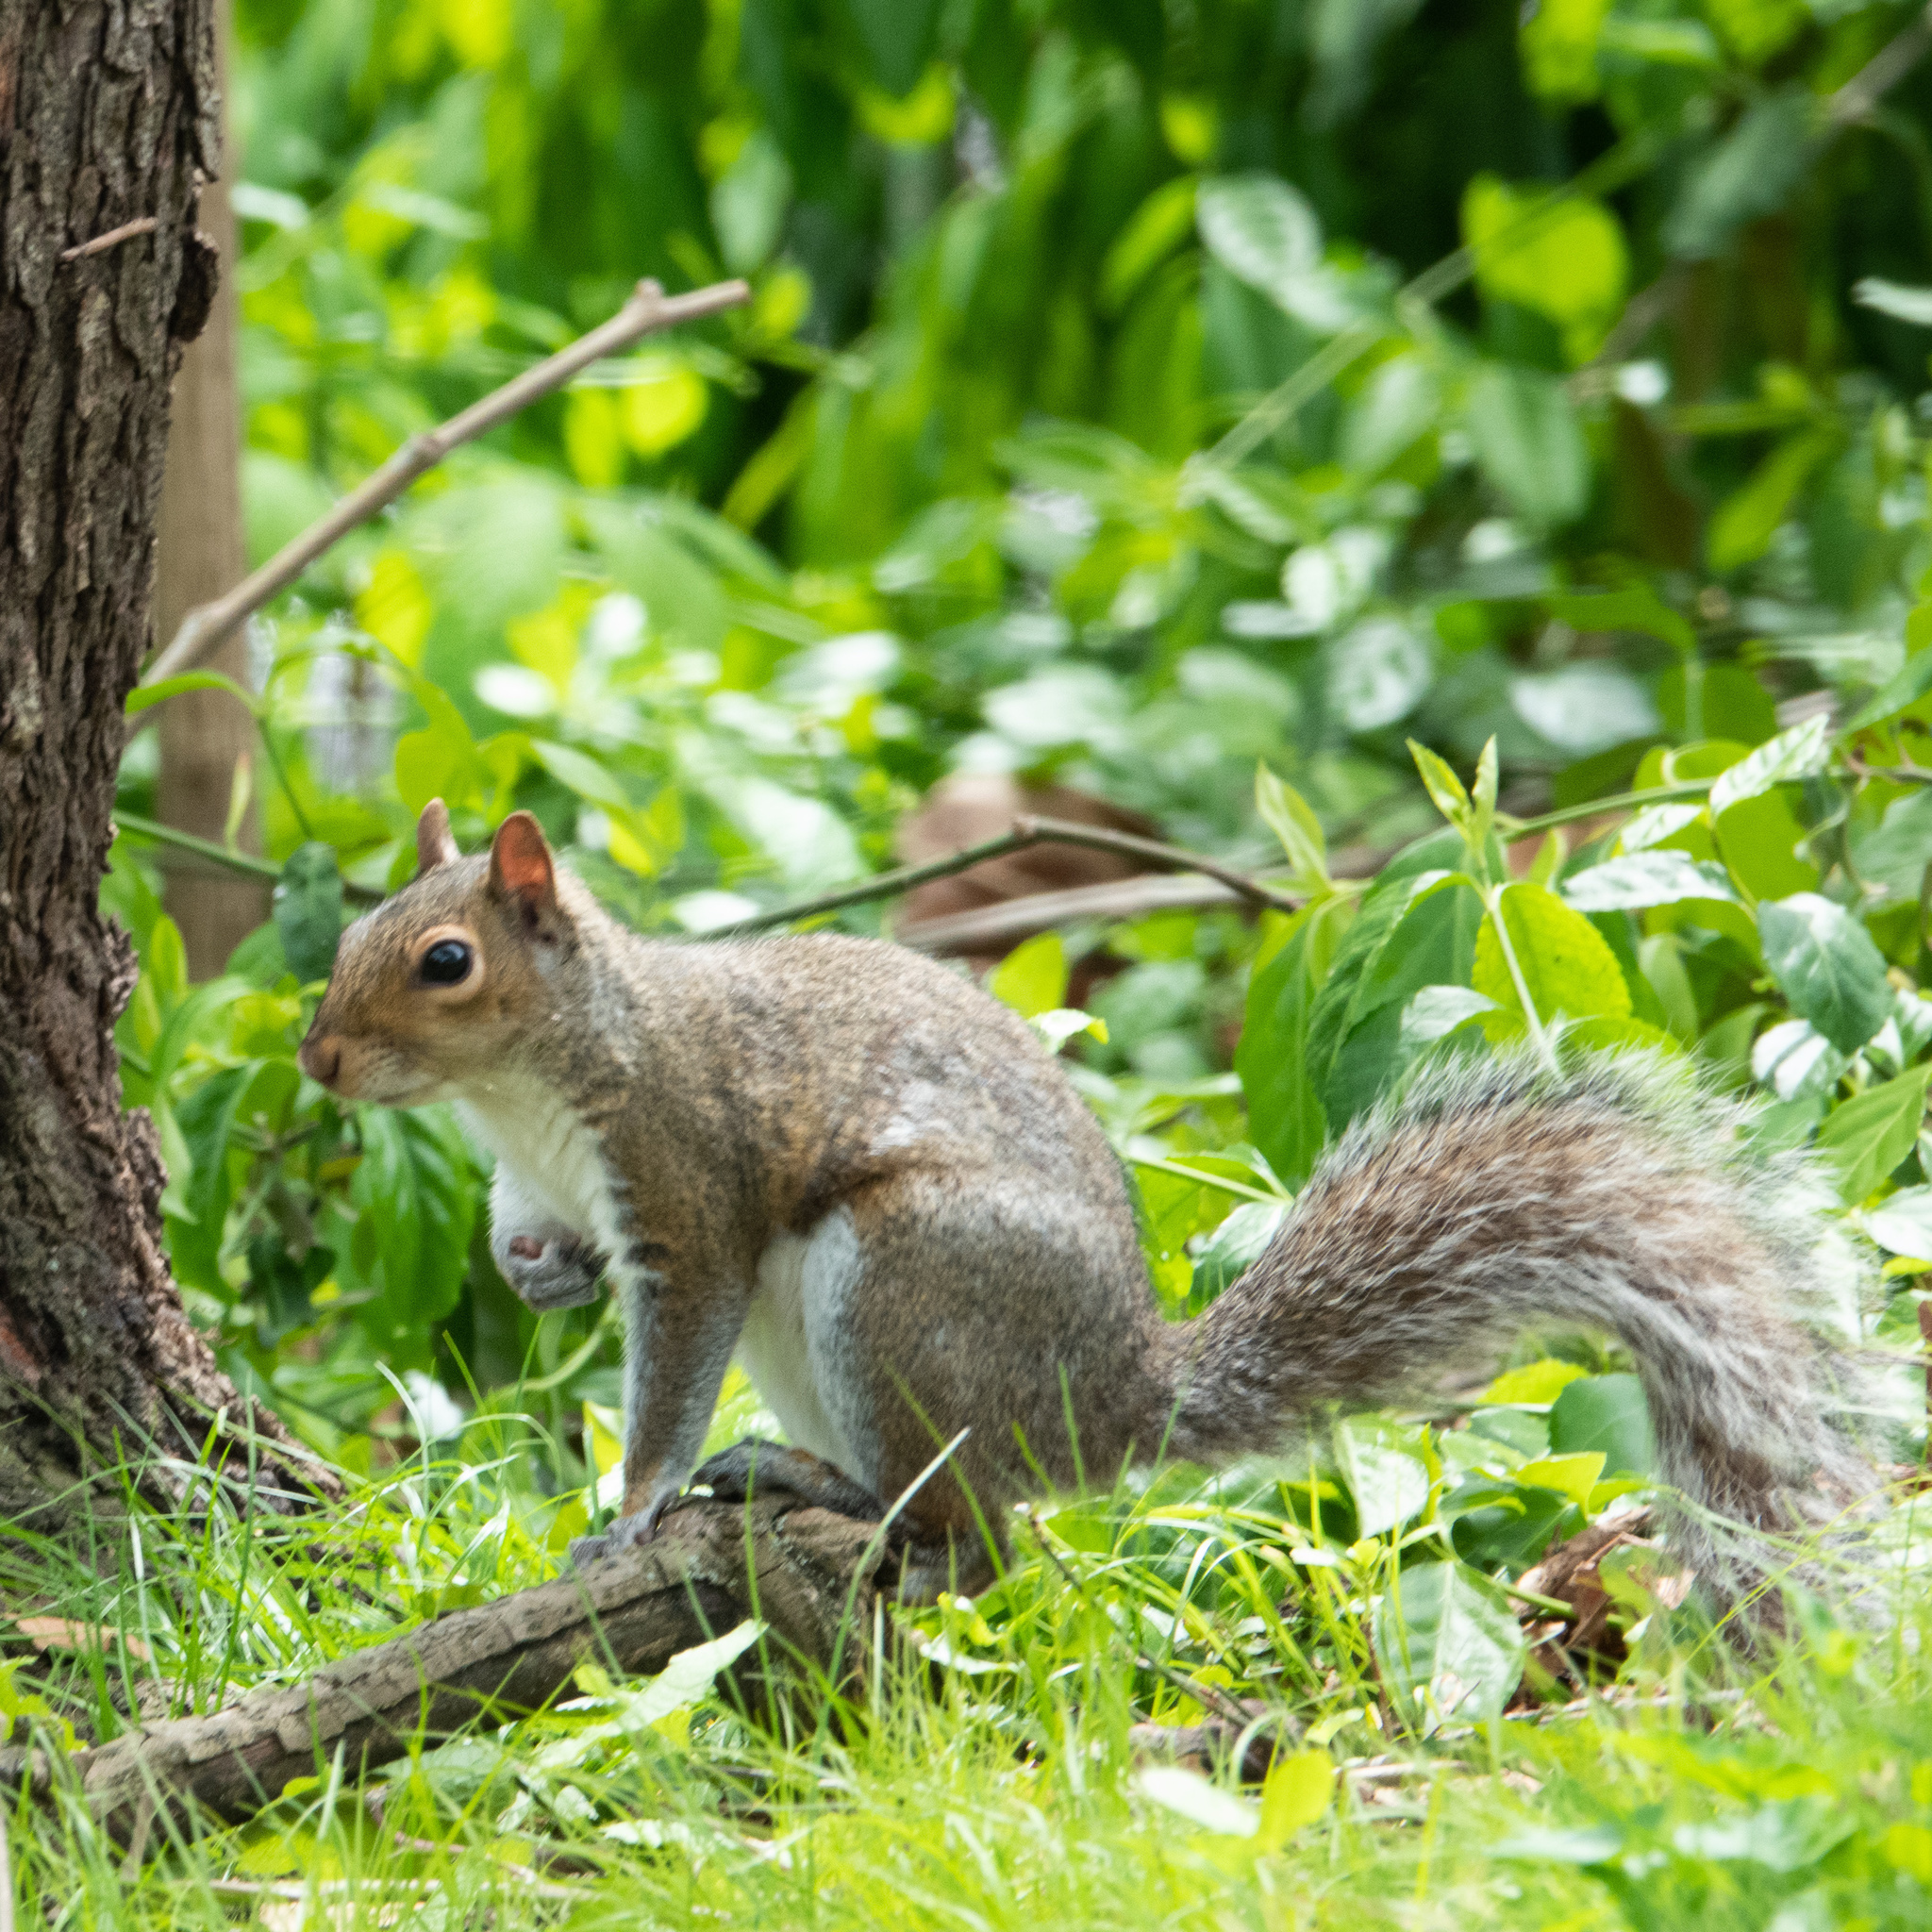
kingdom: Animalia
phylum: Chordata
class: Mammalia
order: Rodentia
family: Sciuridae
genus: Sciurus
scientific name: Sciurus carolinensis
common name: Eastern gray squirrel
